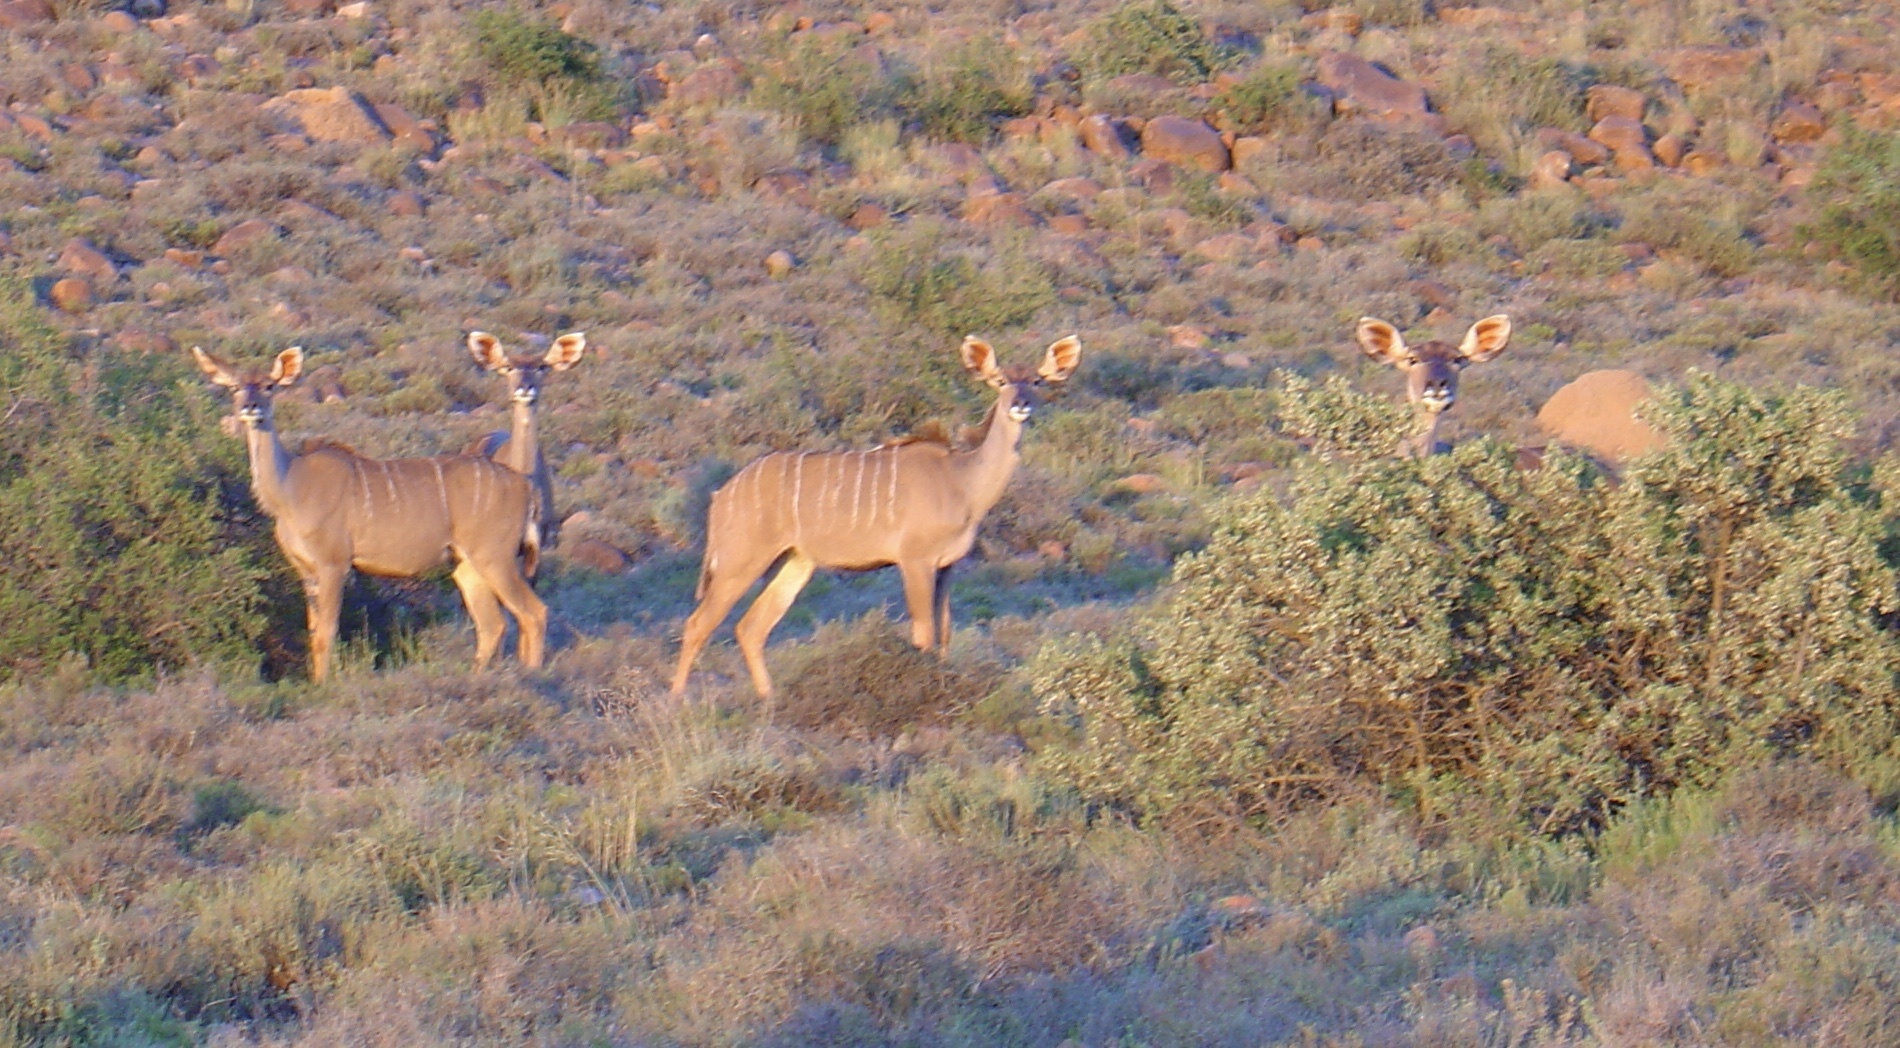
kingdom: Animalia
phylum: Chordata
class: Mammalia
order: Artiodactyla
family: Bovidae
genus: Tragelaphus
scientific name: Tragelaphus strepsiceros
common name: Greater kudu
